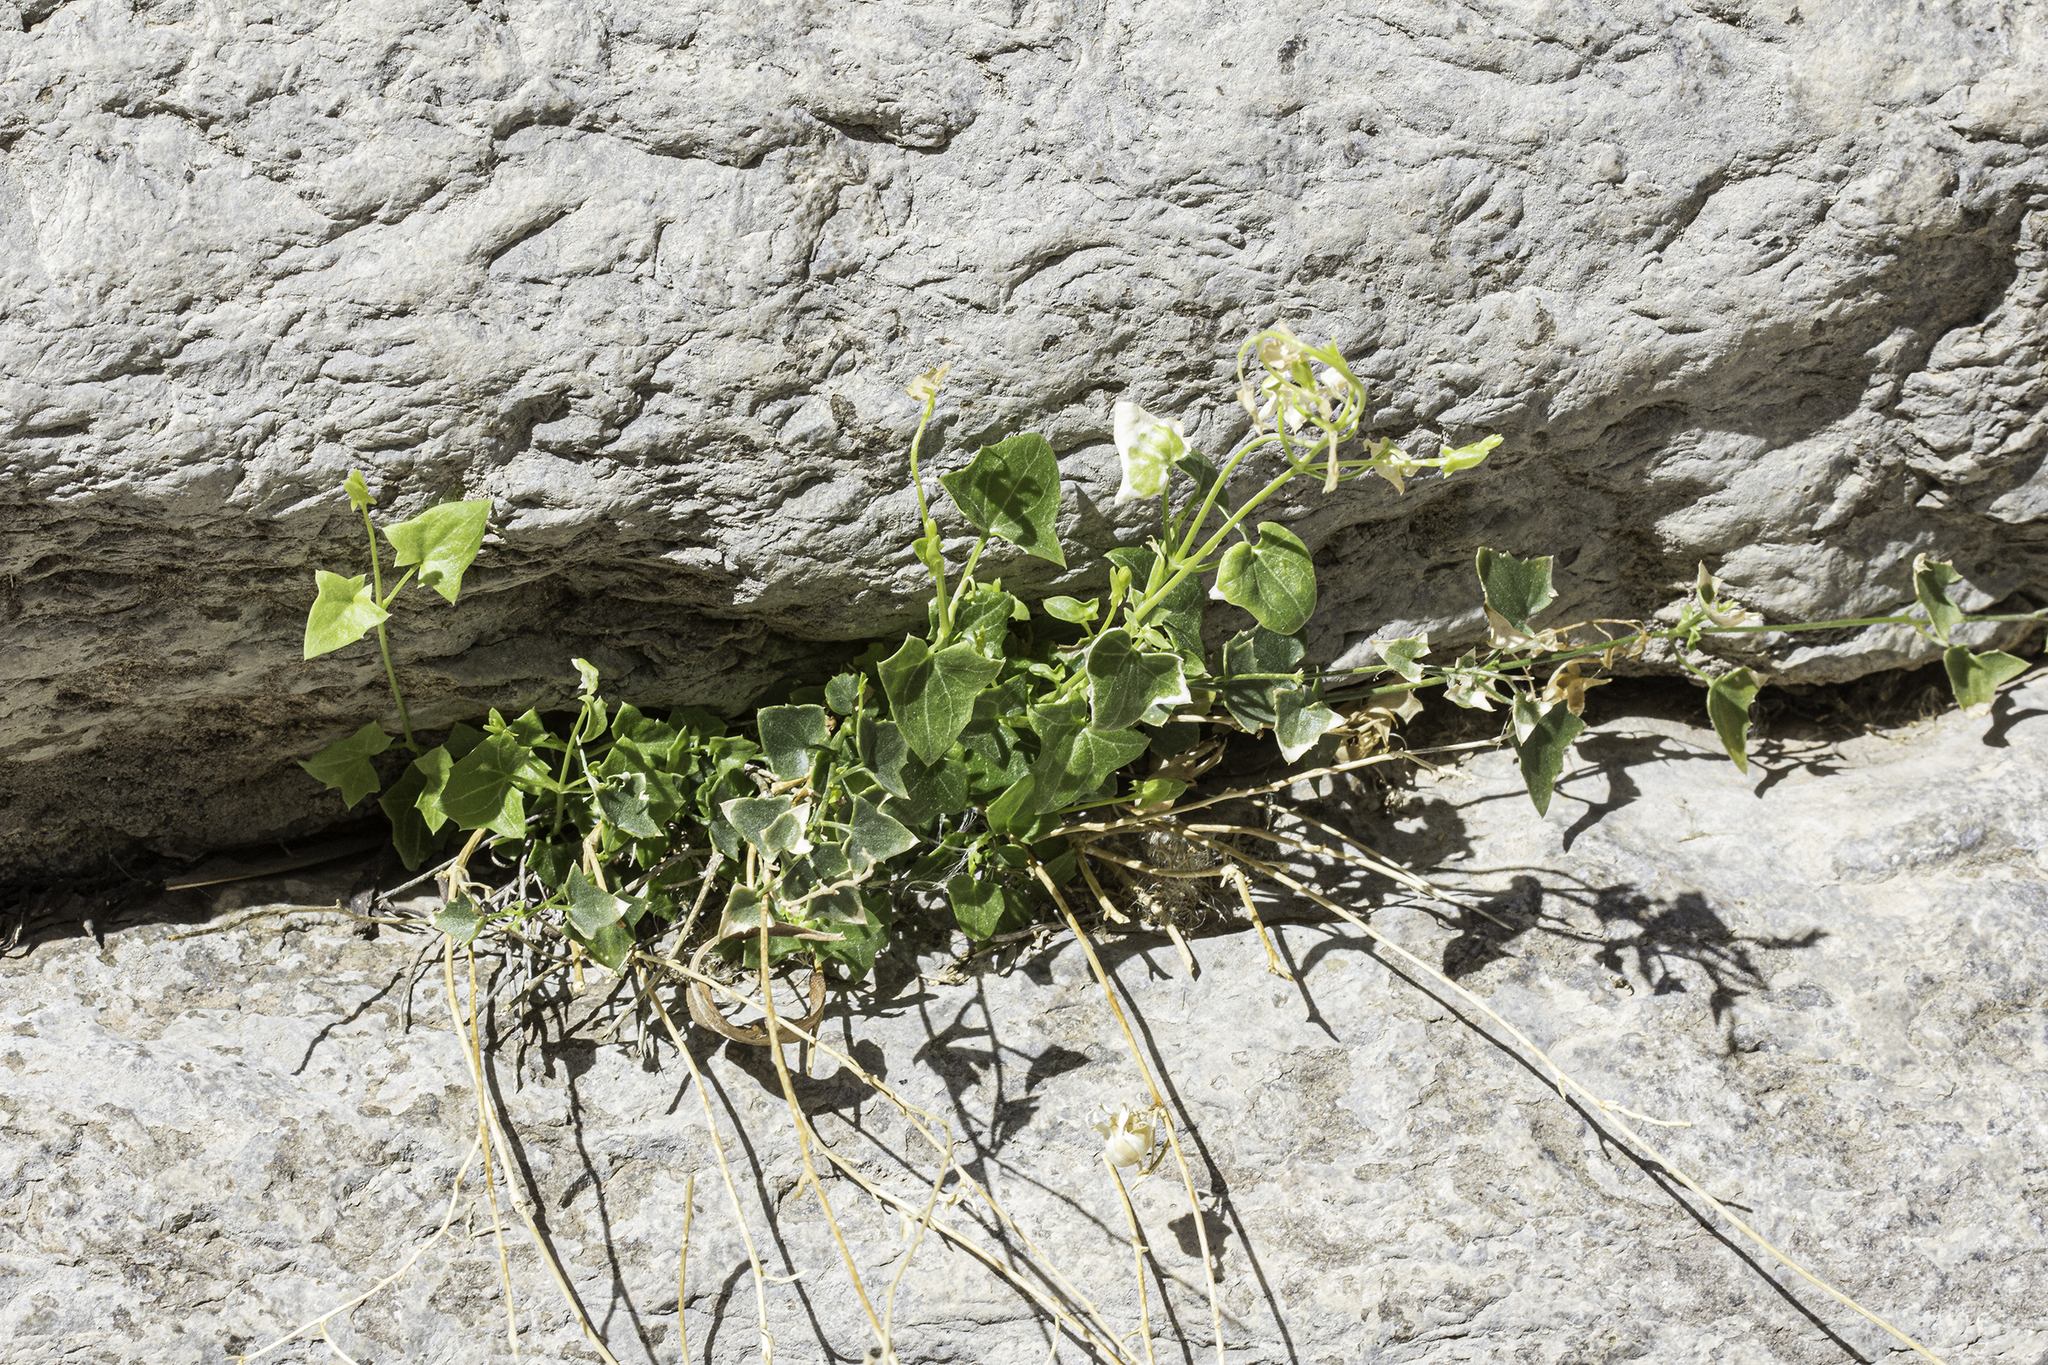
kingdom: Plantae
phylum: Tracheophyta
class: Magnoliopsida
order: Lamiales
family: Plantaginaceae
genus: Maurandella
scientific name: Maurandella antirrhiniflora
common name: Violet twining-snapdragon
